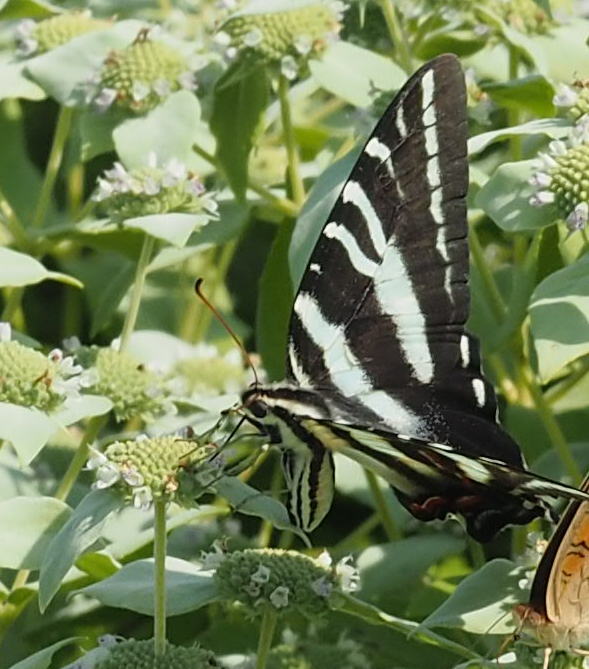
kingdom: Animalia
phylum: Arthropoda
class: Insecta
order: Lepidoptera
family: Papilionidae
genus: Protographium
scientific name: Protographium marcellus
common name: Zebra swallowtail
